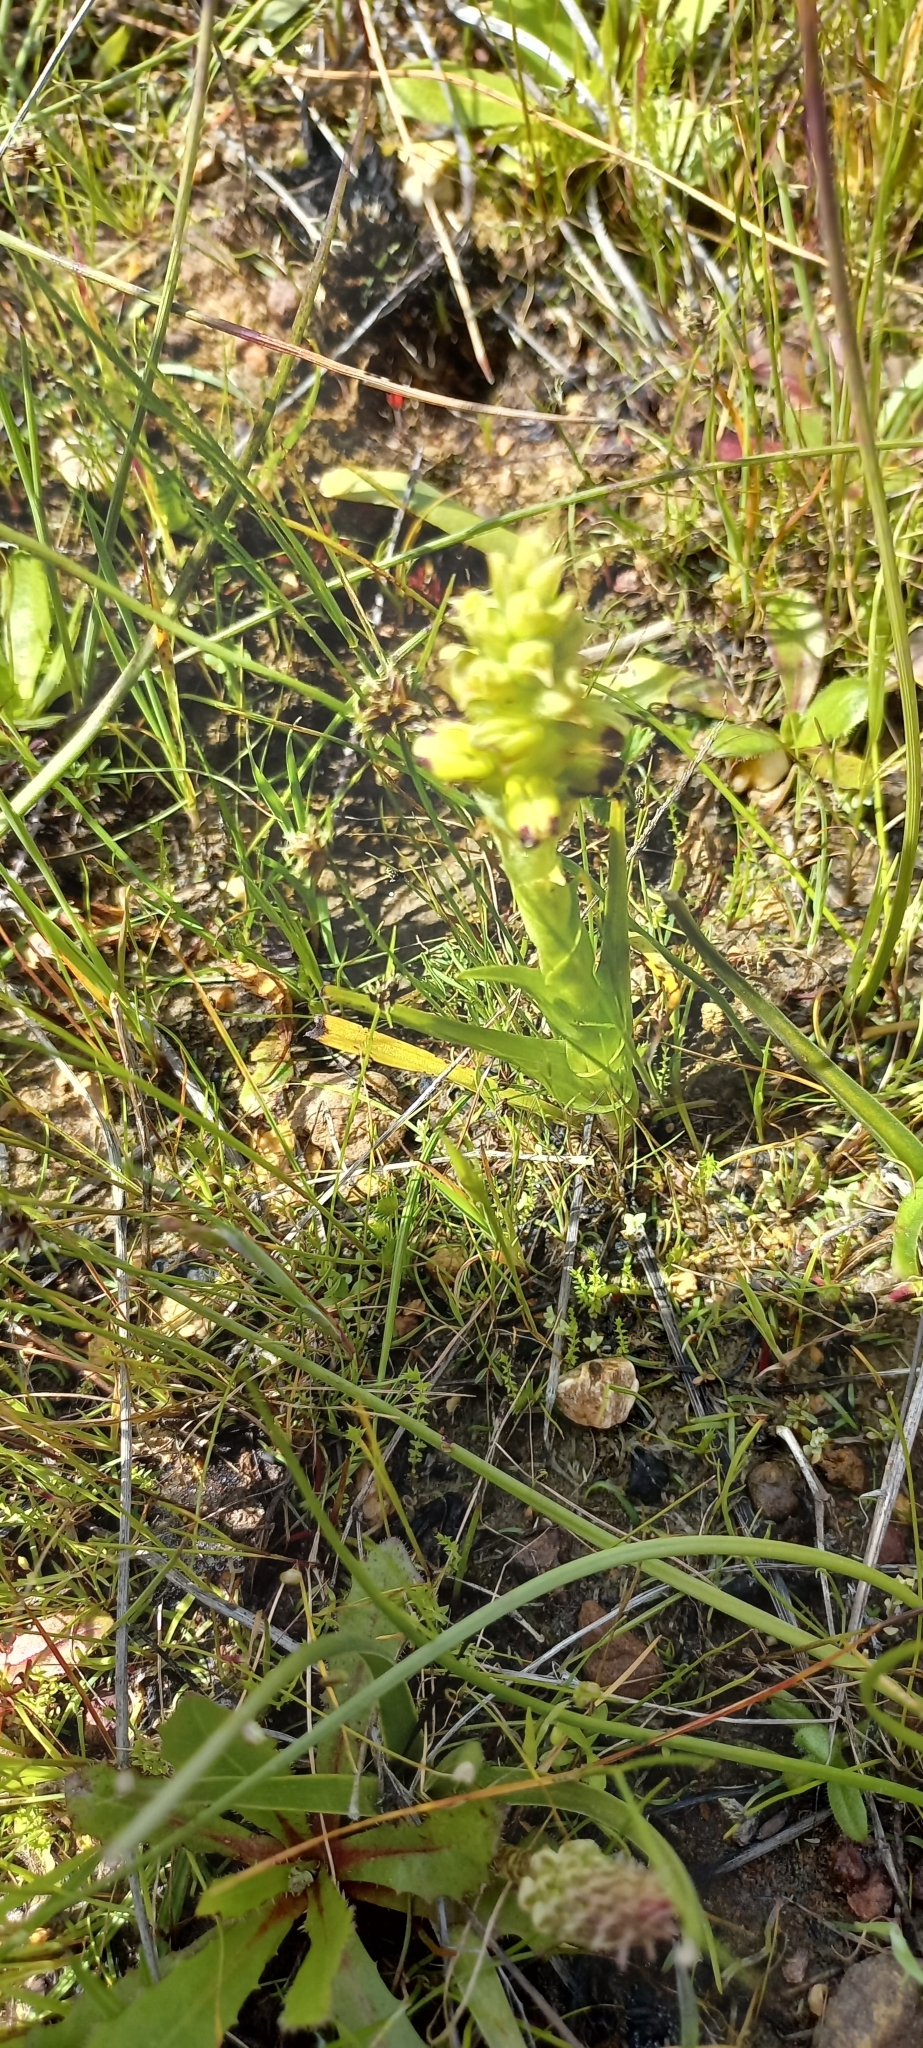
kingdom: Plantae
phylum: Tracheophyta
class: Liliopsida
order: Asparagales
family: Orchidaceae
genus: Corycium
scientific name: Corycium orobanchoides
